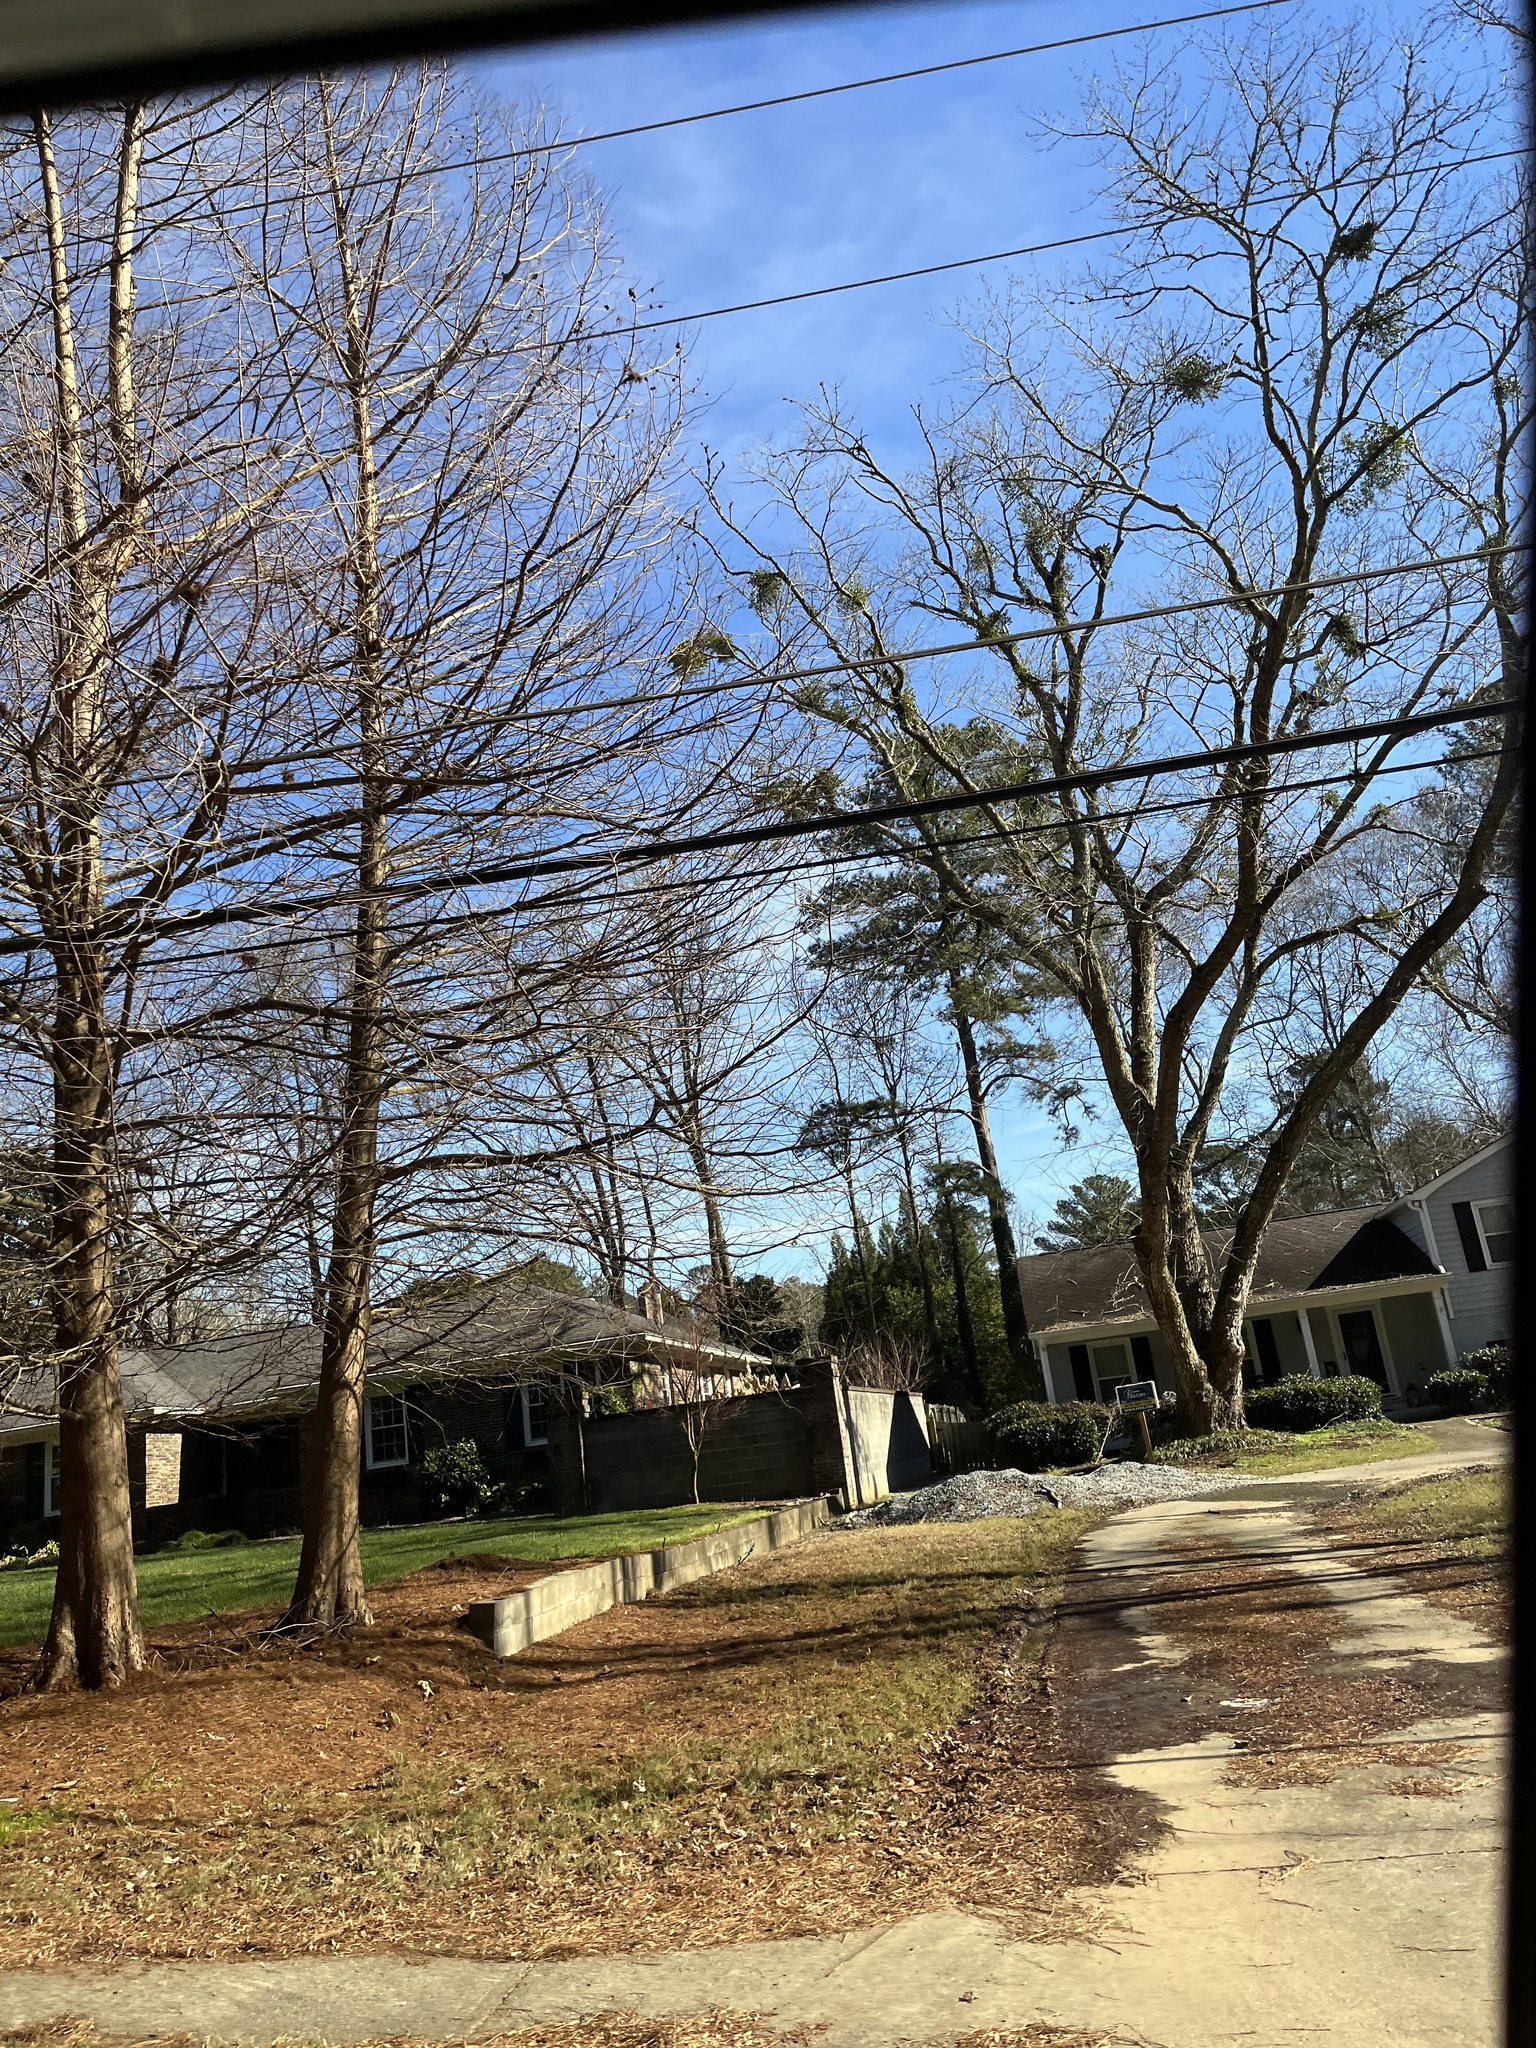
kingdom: Plantae
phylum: Tracheophyta
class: Magnoliopsida
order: Santalales
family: Viscaceae
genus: Phoradendron
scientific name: Phoradendron leucarpum
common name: Pacific mistletoe
